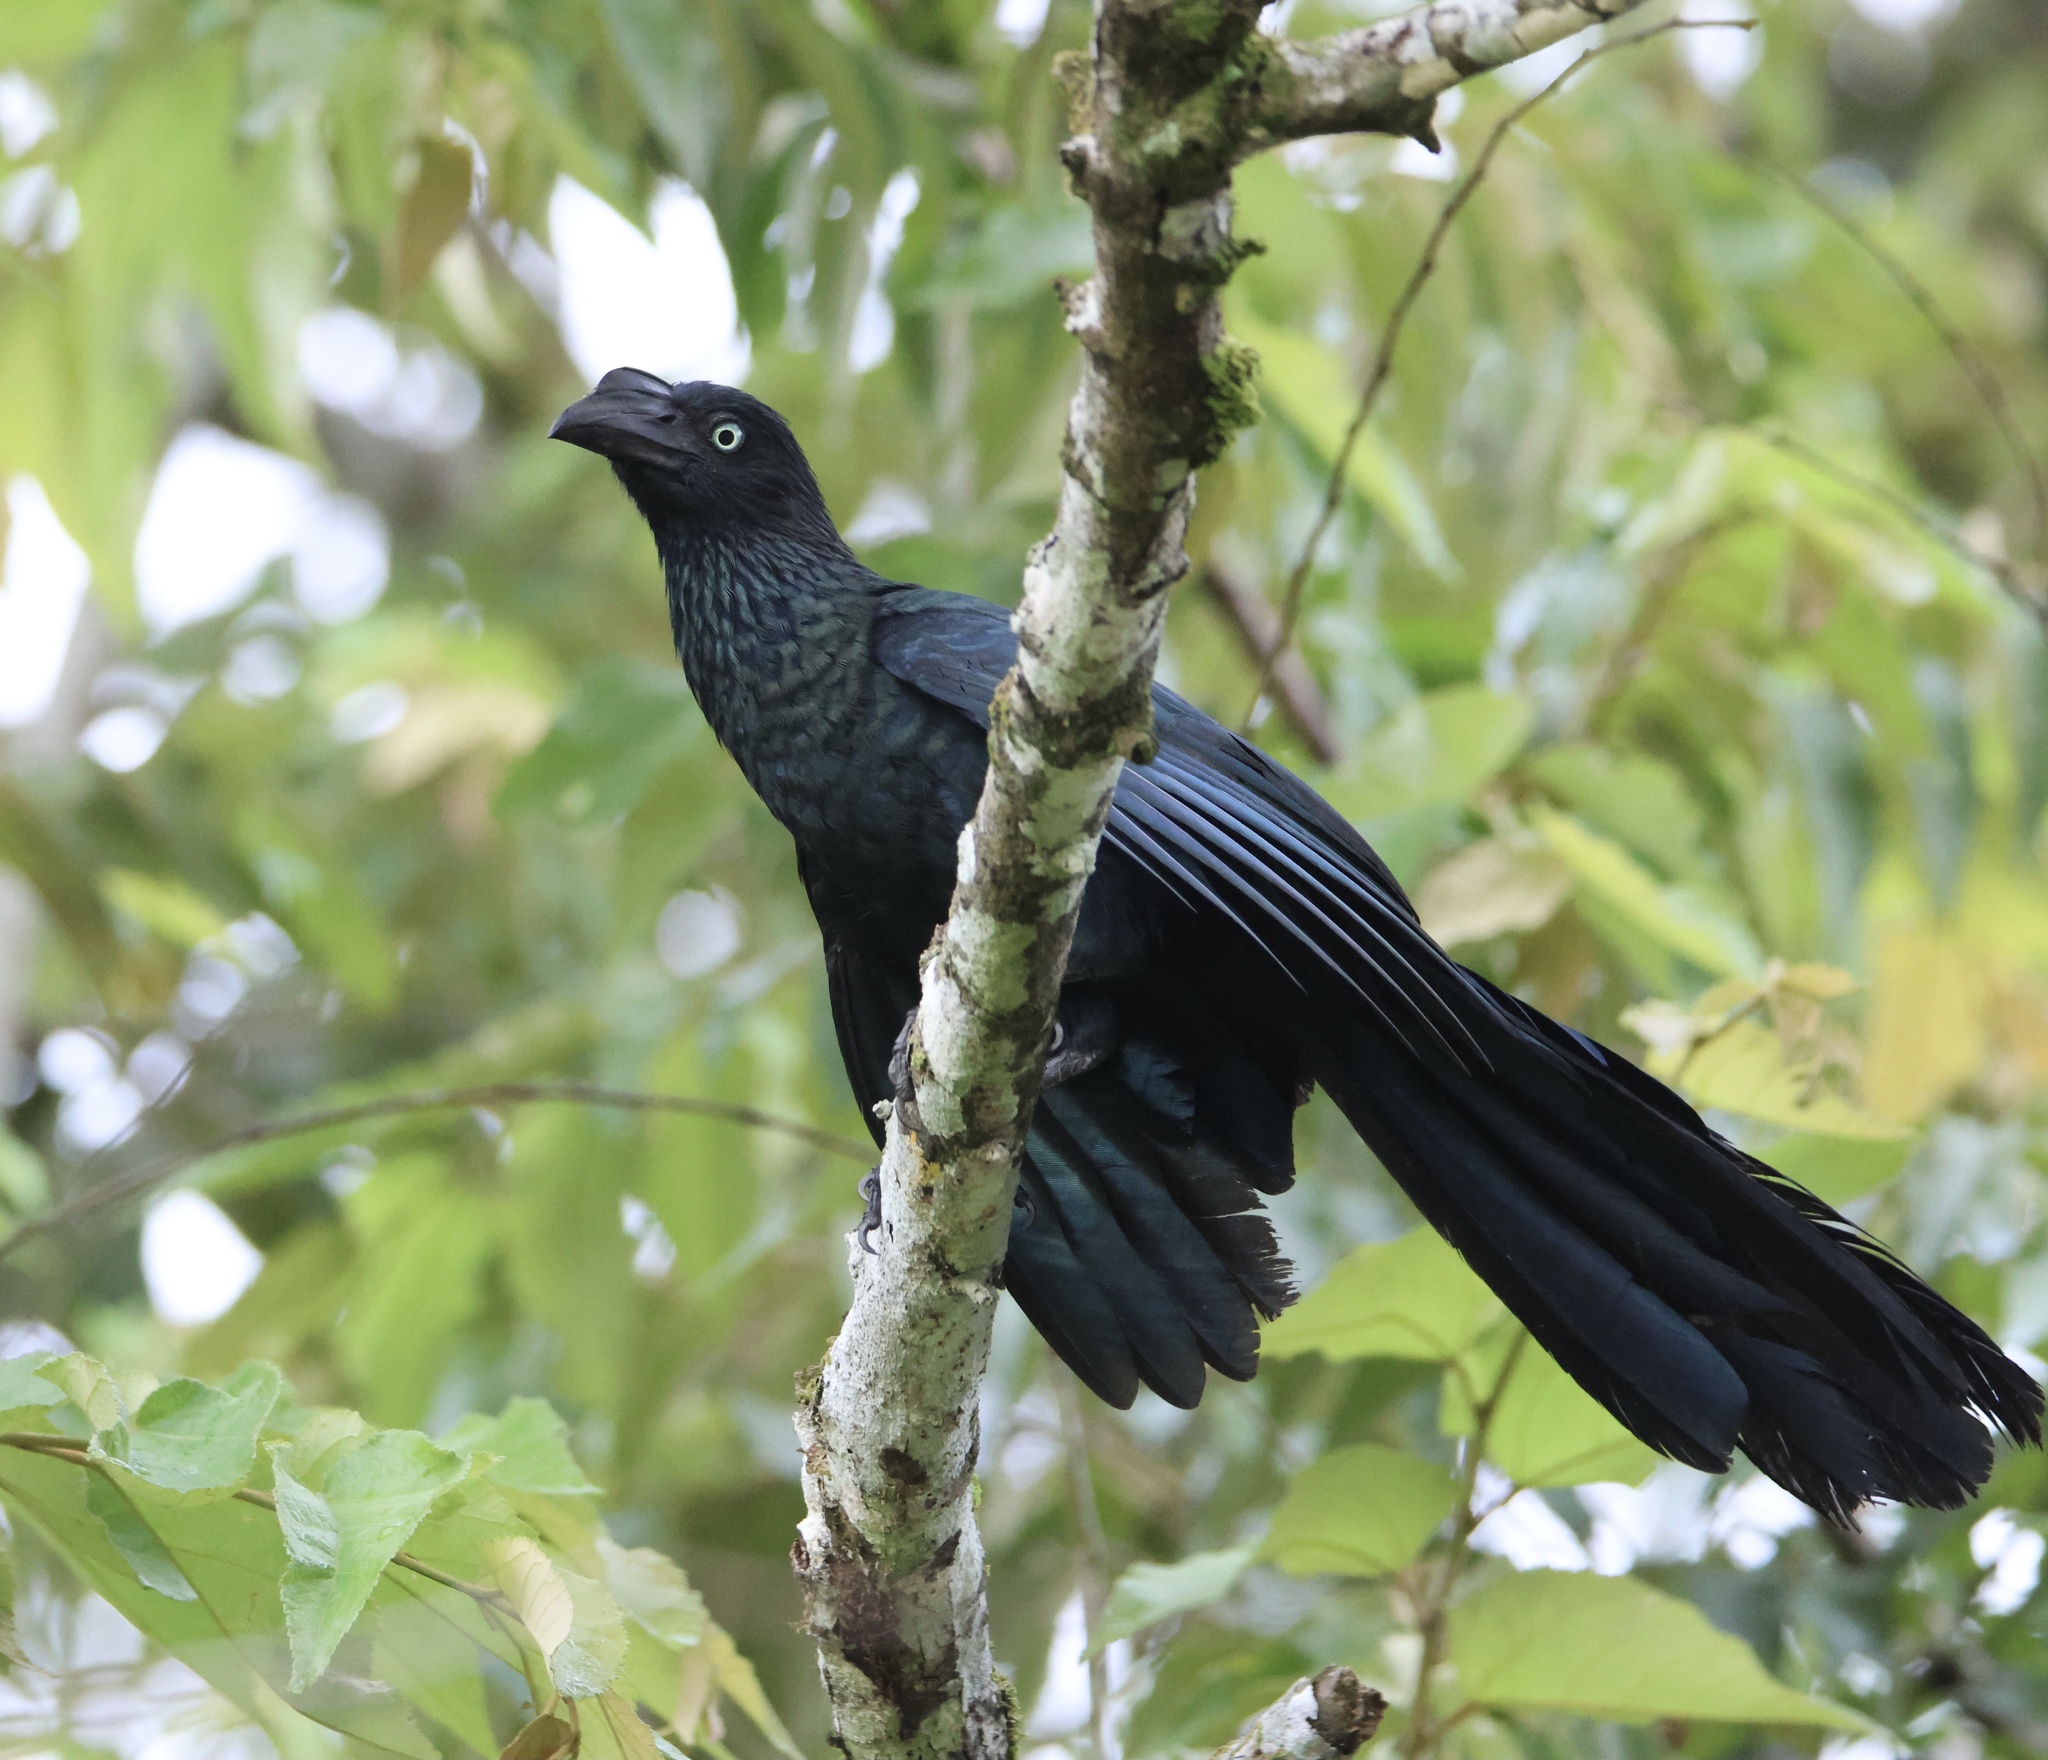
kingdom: Animalia
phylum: Chordata
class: Aves
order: Cuculiformes
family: Cuculidae
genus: Crotophaga
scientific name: Crotophaga major
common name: Greater ani
